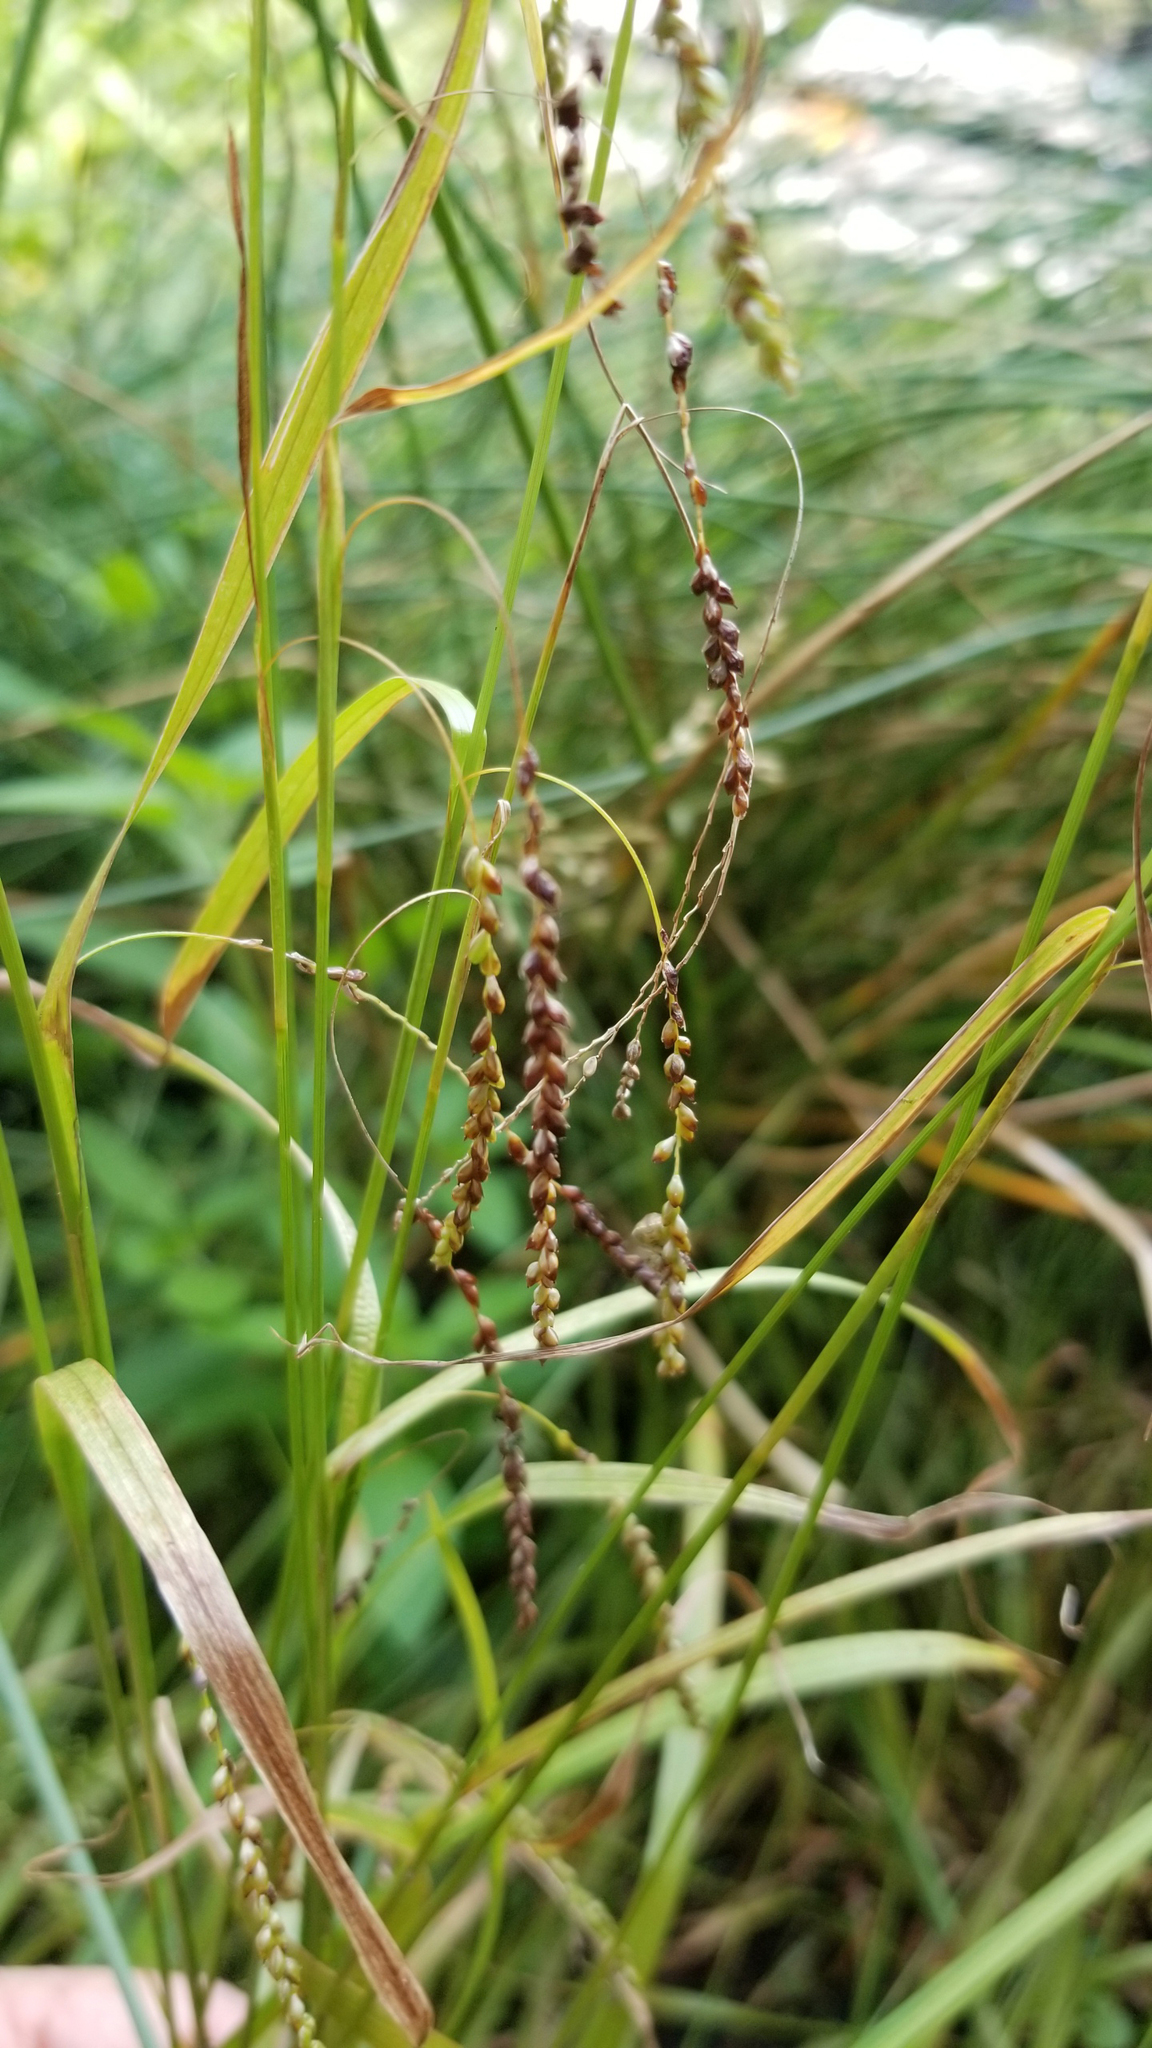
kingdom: Plantae
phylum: Tracheophyta
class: Liliopsida
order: Poales
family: Cyperaceae
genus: Carex
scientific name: Carex gracillima
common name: Graceful sedge
